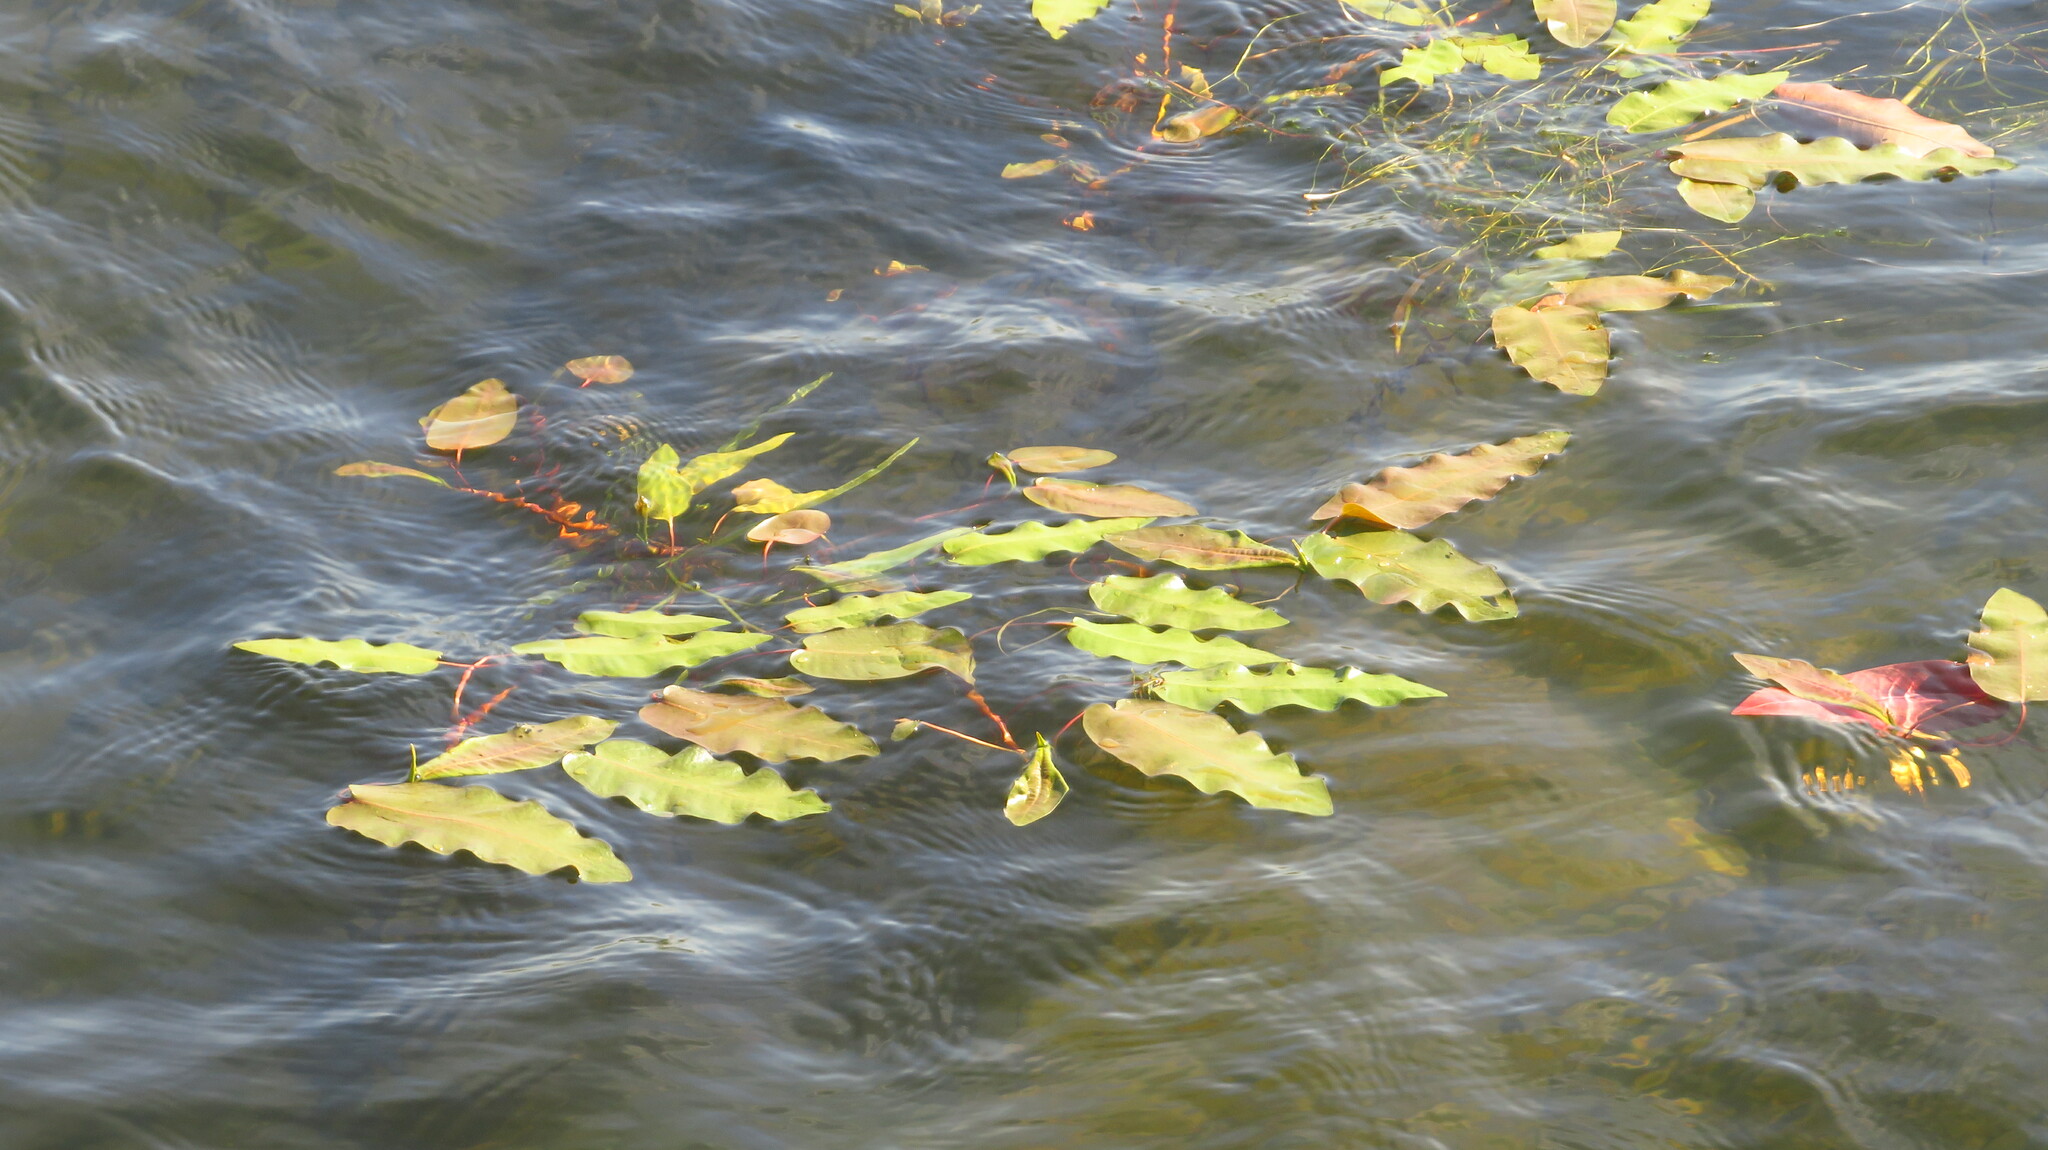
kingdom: Plantae
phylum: Tracheophyta
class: Liliopsida
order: Alismatales
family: Potamogetonaceae
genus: Potamogeton
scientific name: Potamogeton alpinus
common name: Red pondweed
